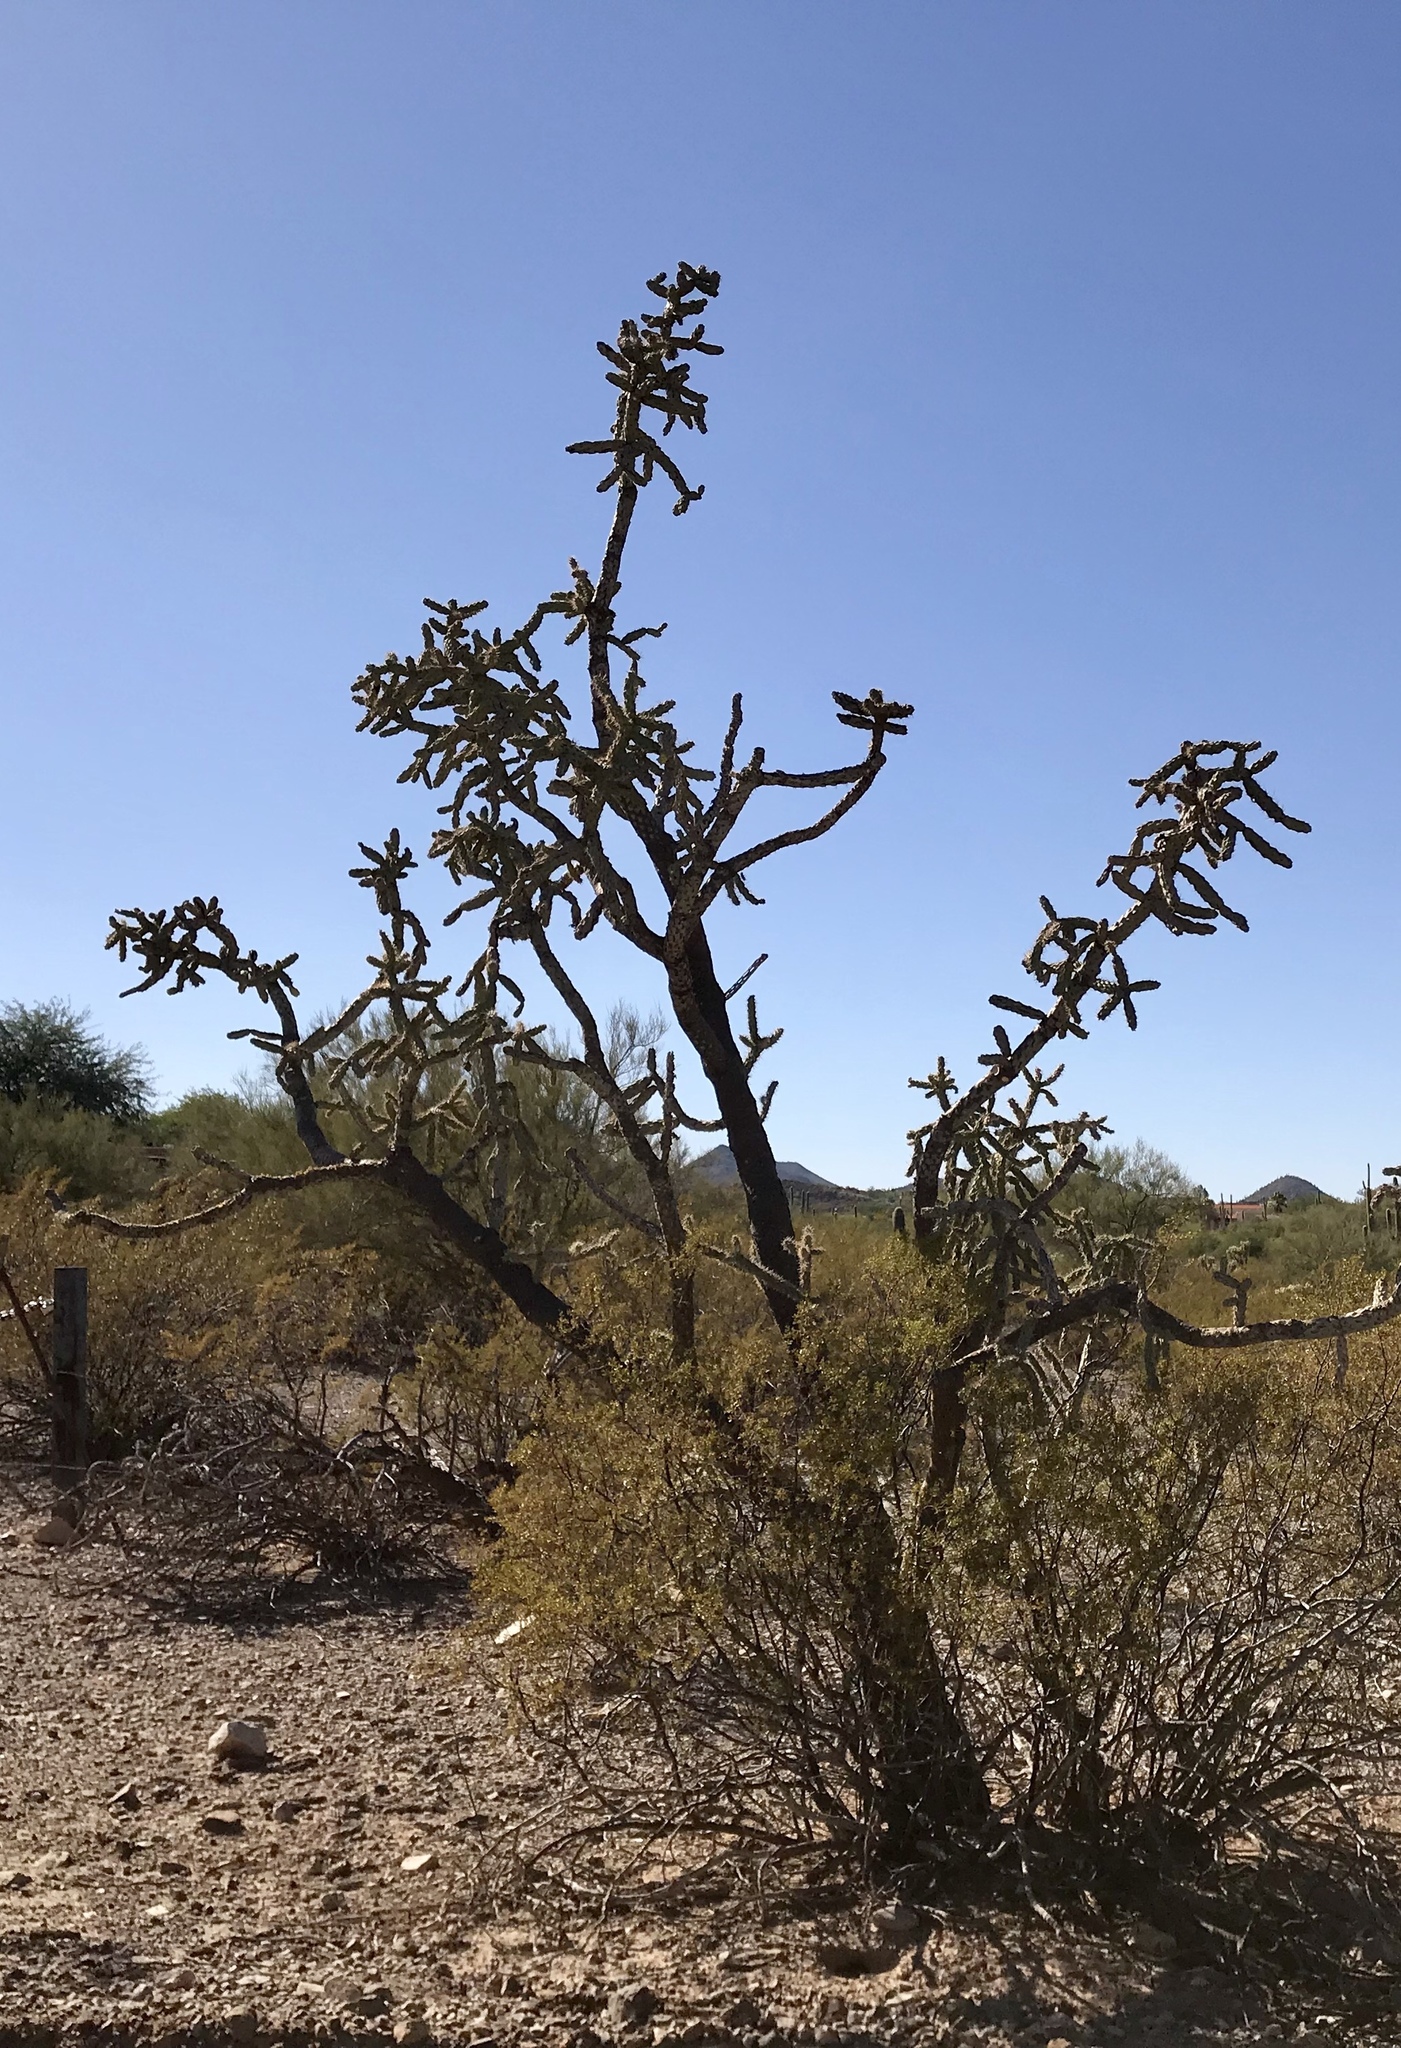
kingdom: Plantae
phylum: Tracheophyta
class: Magnoliopsida
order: Caryophyllales
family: Cactaceae
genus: Cylindropuntia
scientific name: Cylindropuntia imbricata
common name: Candelabrum cactus
